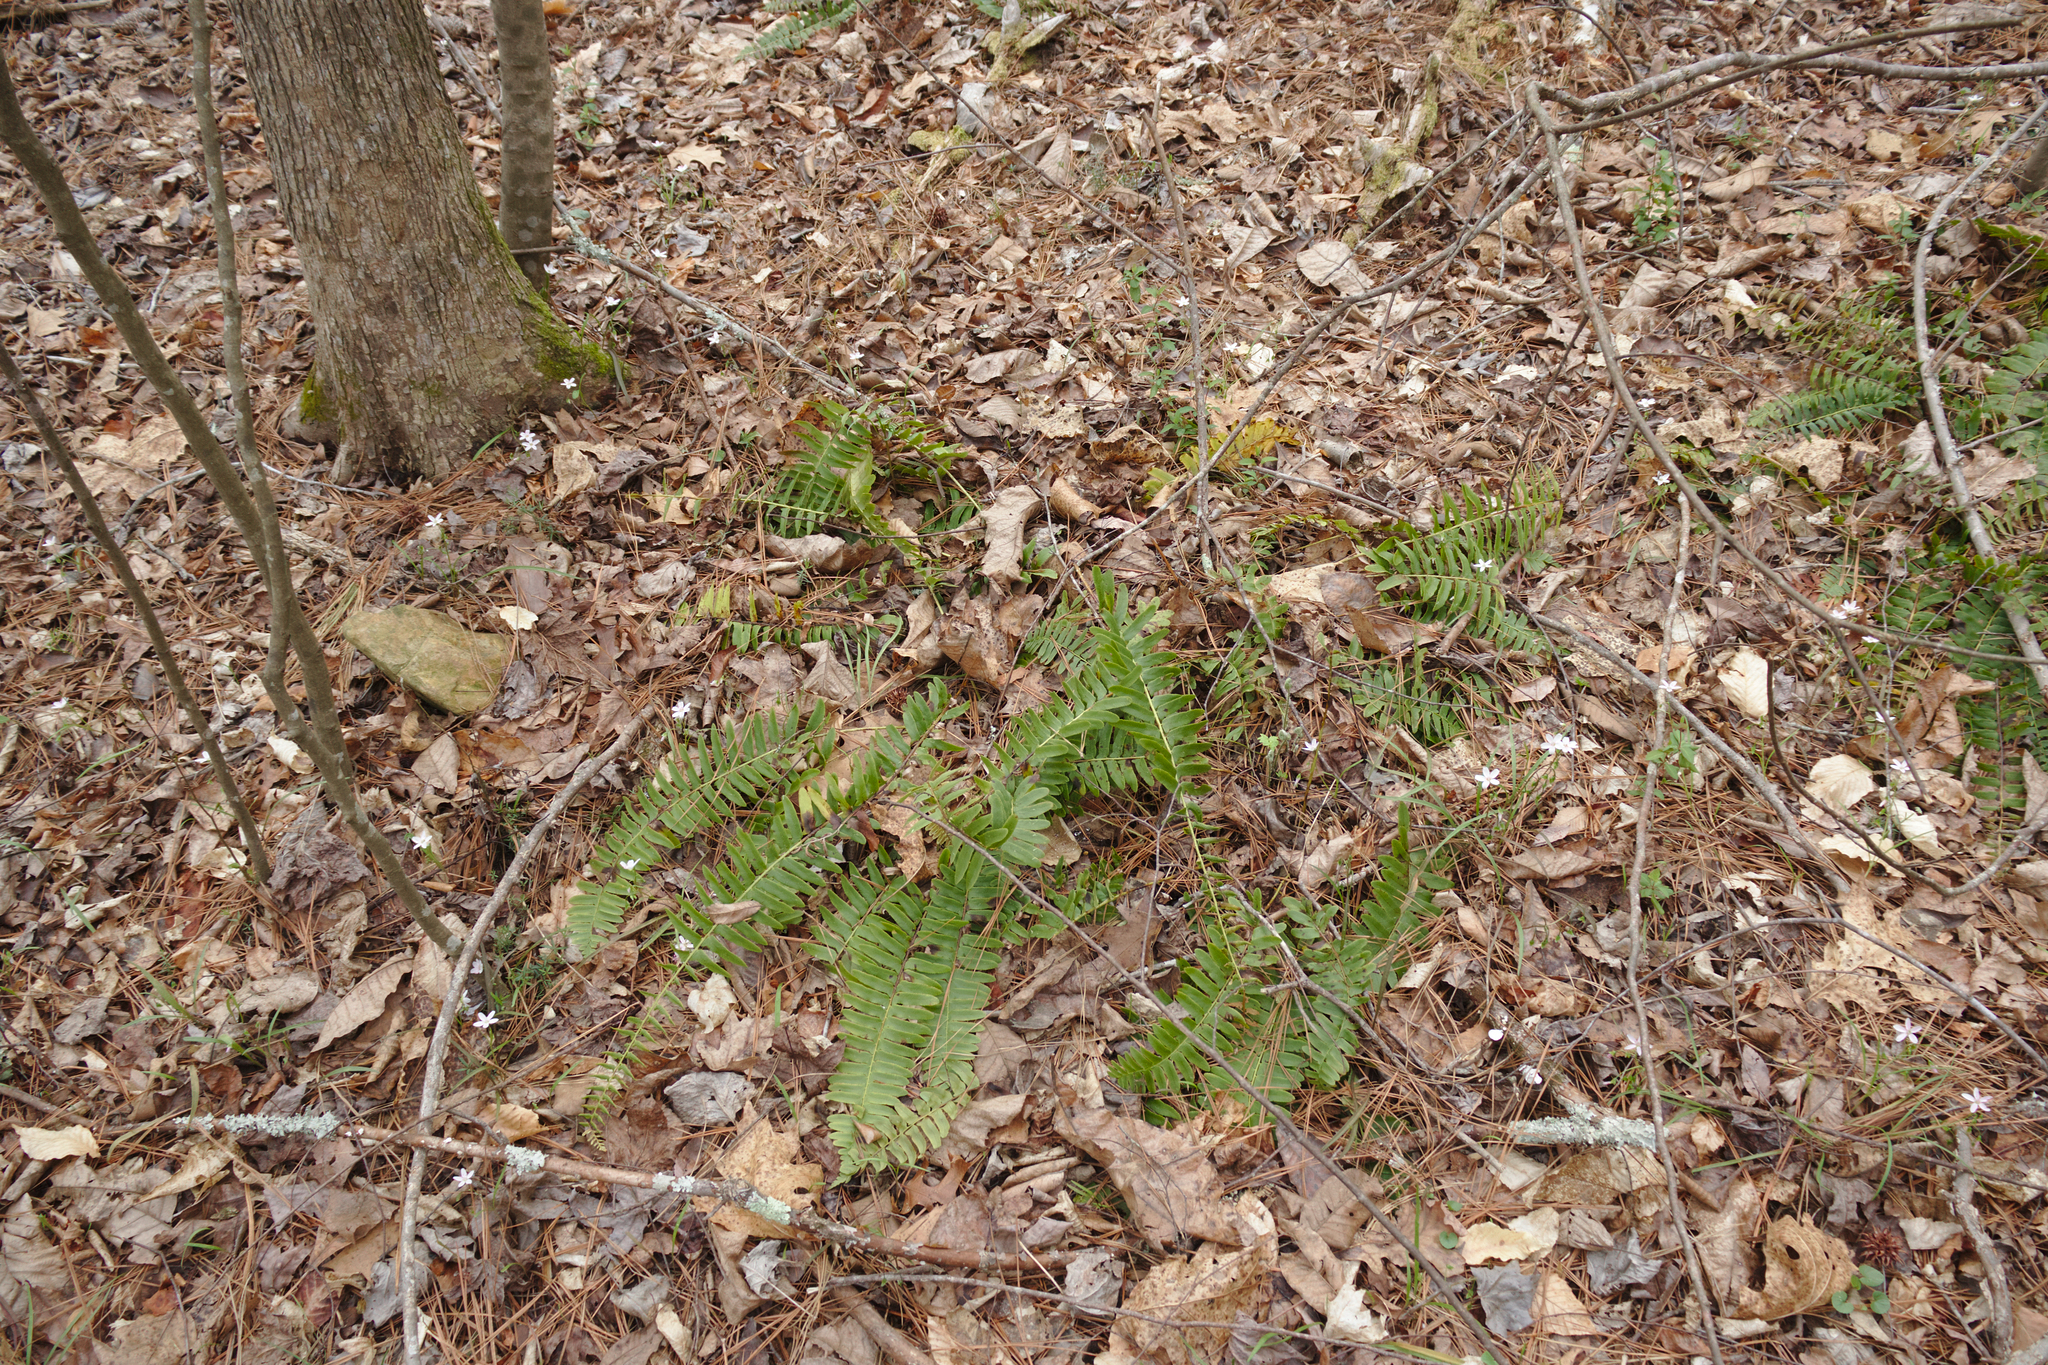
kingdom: Plantae
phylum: Tracheophyta
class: Polypodiopsida
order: Polypodiales
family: Dryopteridaceae
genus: Polystichum
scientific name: Polystichum acrostichoides
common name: Christmas fern
